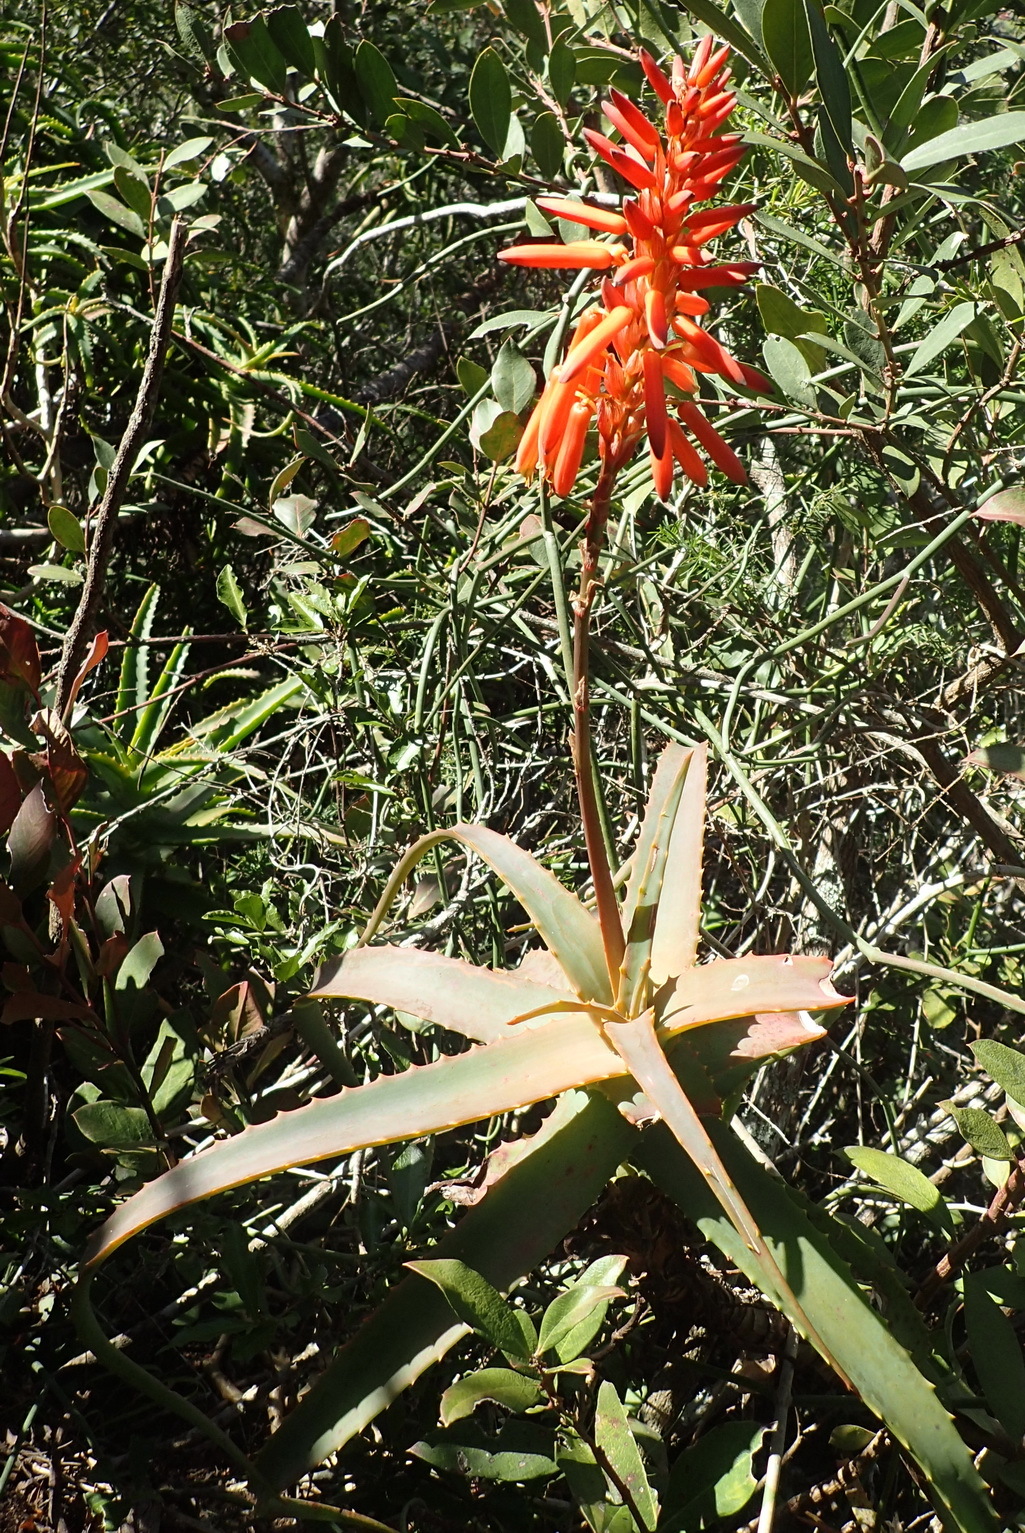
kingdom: Plantae
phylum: Tracheophyta
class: Liliopsida
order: Asparagales
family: Asphodelaceae
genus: Aloe
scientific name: Aloe arborescens
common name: Candelabra aloe
